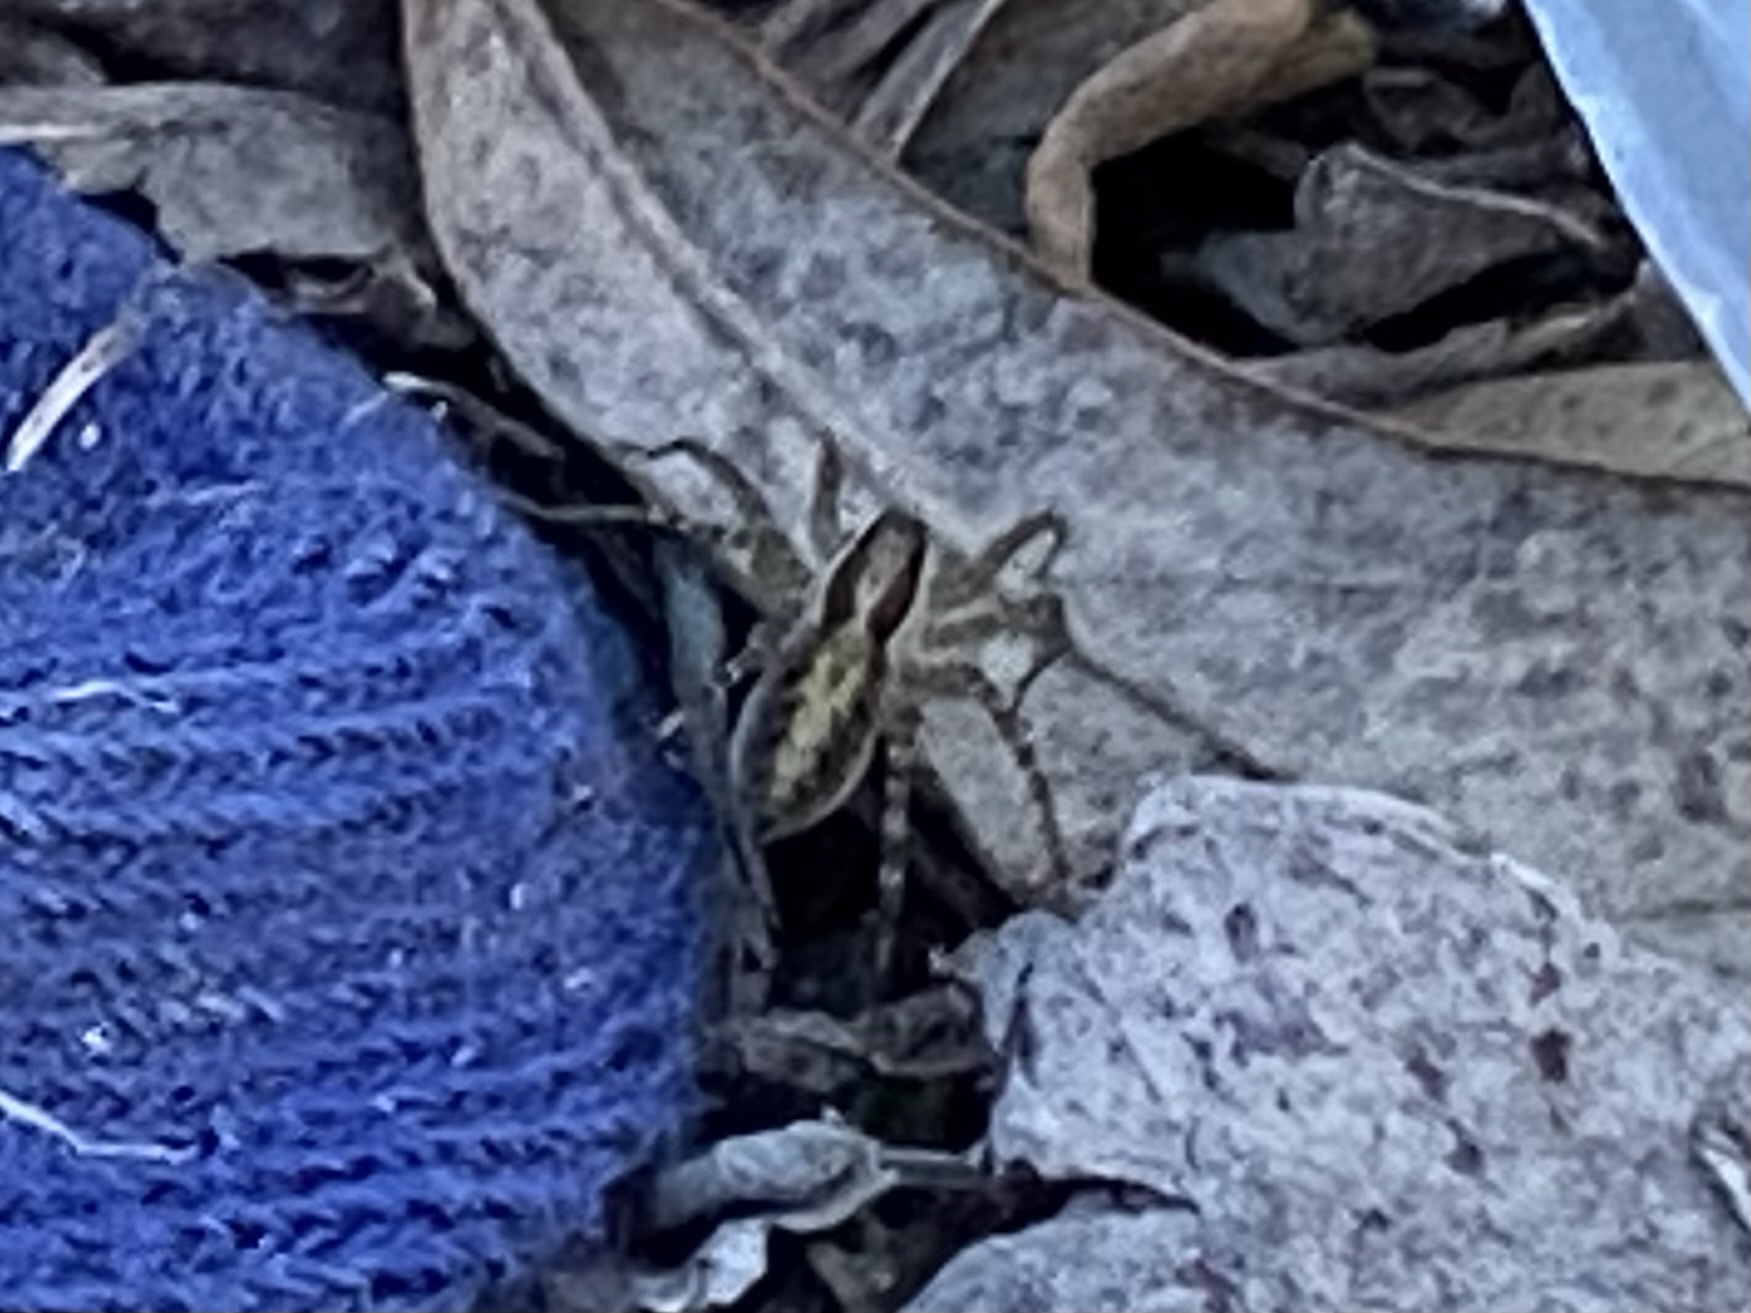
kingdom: Animalia
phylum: Arthropoda
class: Arachnida
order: Araneae
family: Lycosidae
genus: Pardosa
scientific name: Pardosa delicatula
